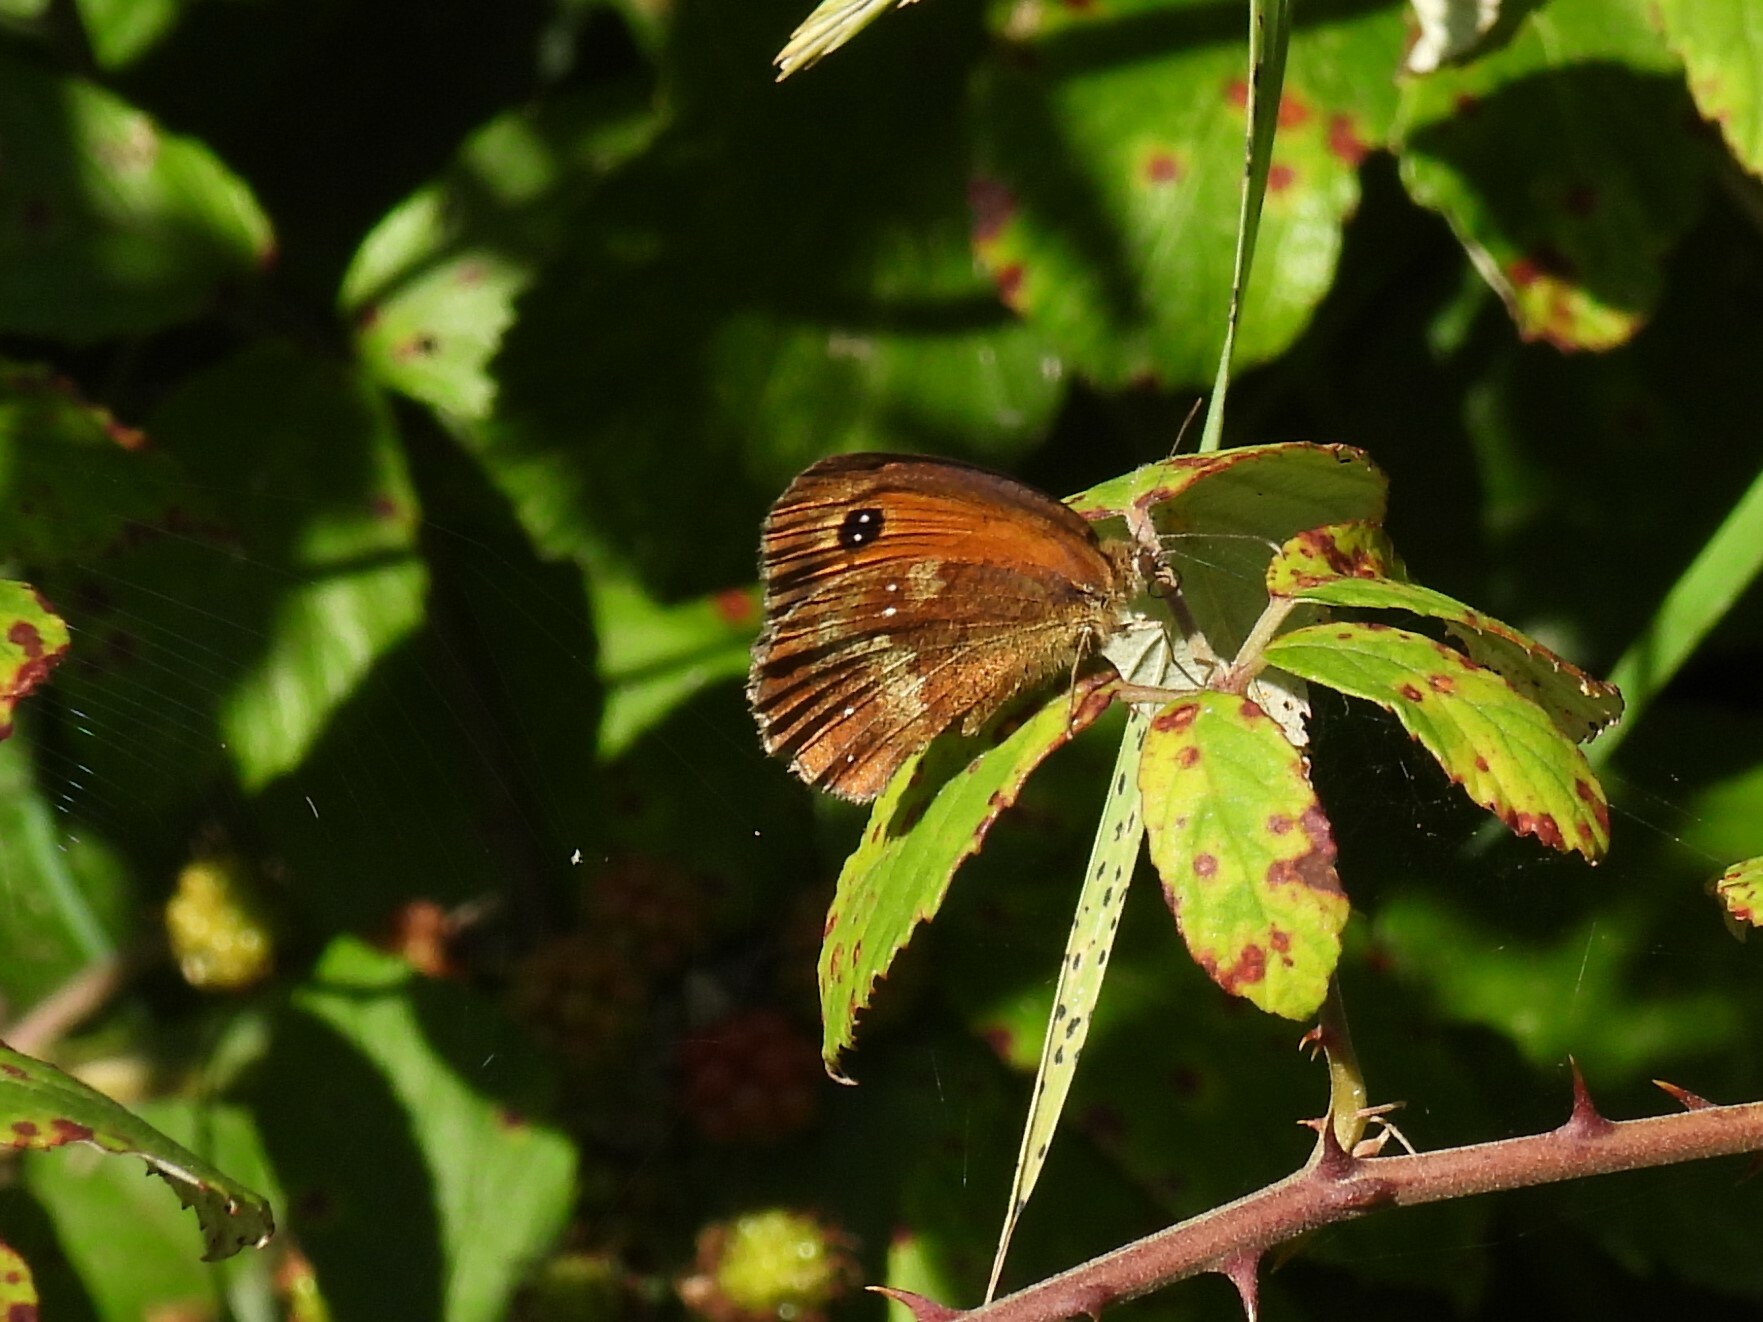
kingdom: Animalia
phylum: Arthropoda
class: Insecta
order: Lepidoptera
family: Nymphalidae
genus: Pyronia
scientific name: Pyronia tithonus
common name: Gatekeeper
